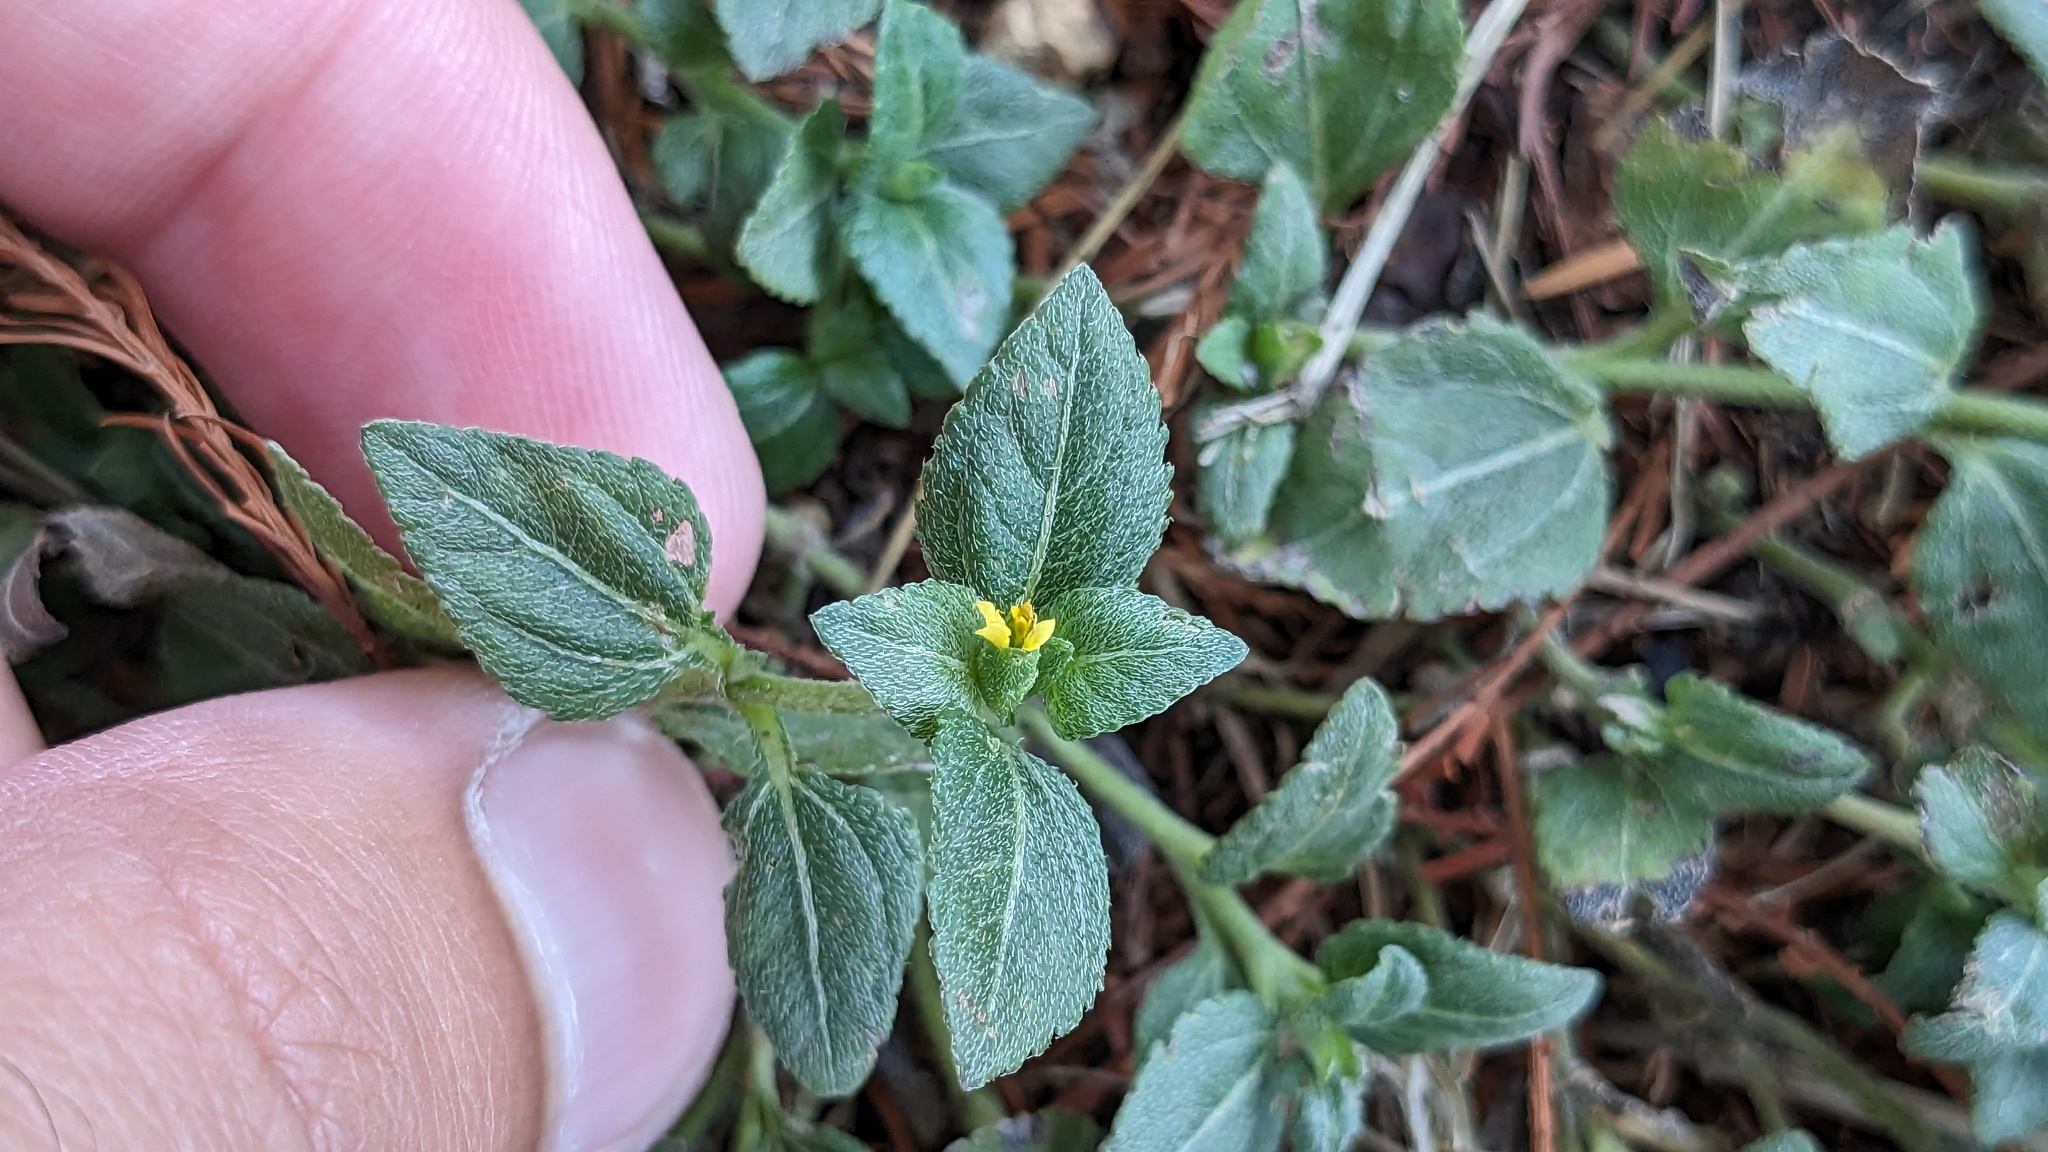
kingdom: Plantae
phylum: Tracheophyta
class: Magnoliopsida
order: Asterales
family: Asteraceae
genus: Calyptocarpus
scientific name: Calyptocarpus vialis
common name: Straggler daisy
